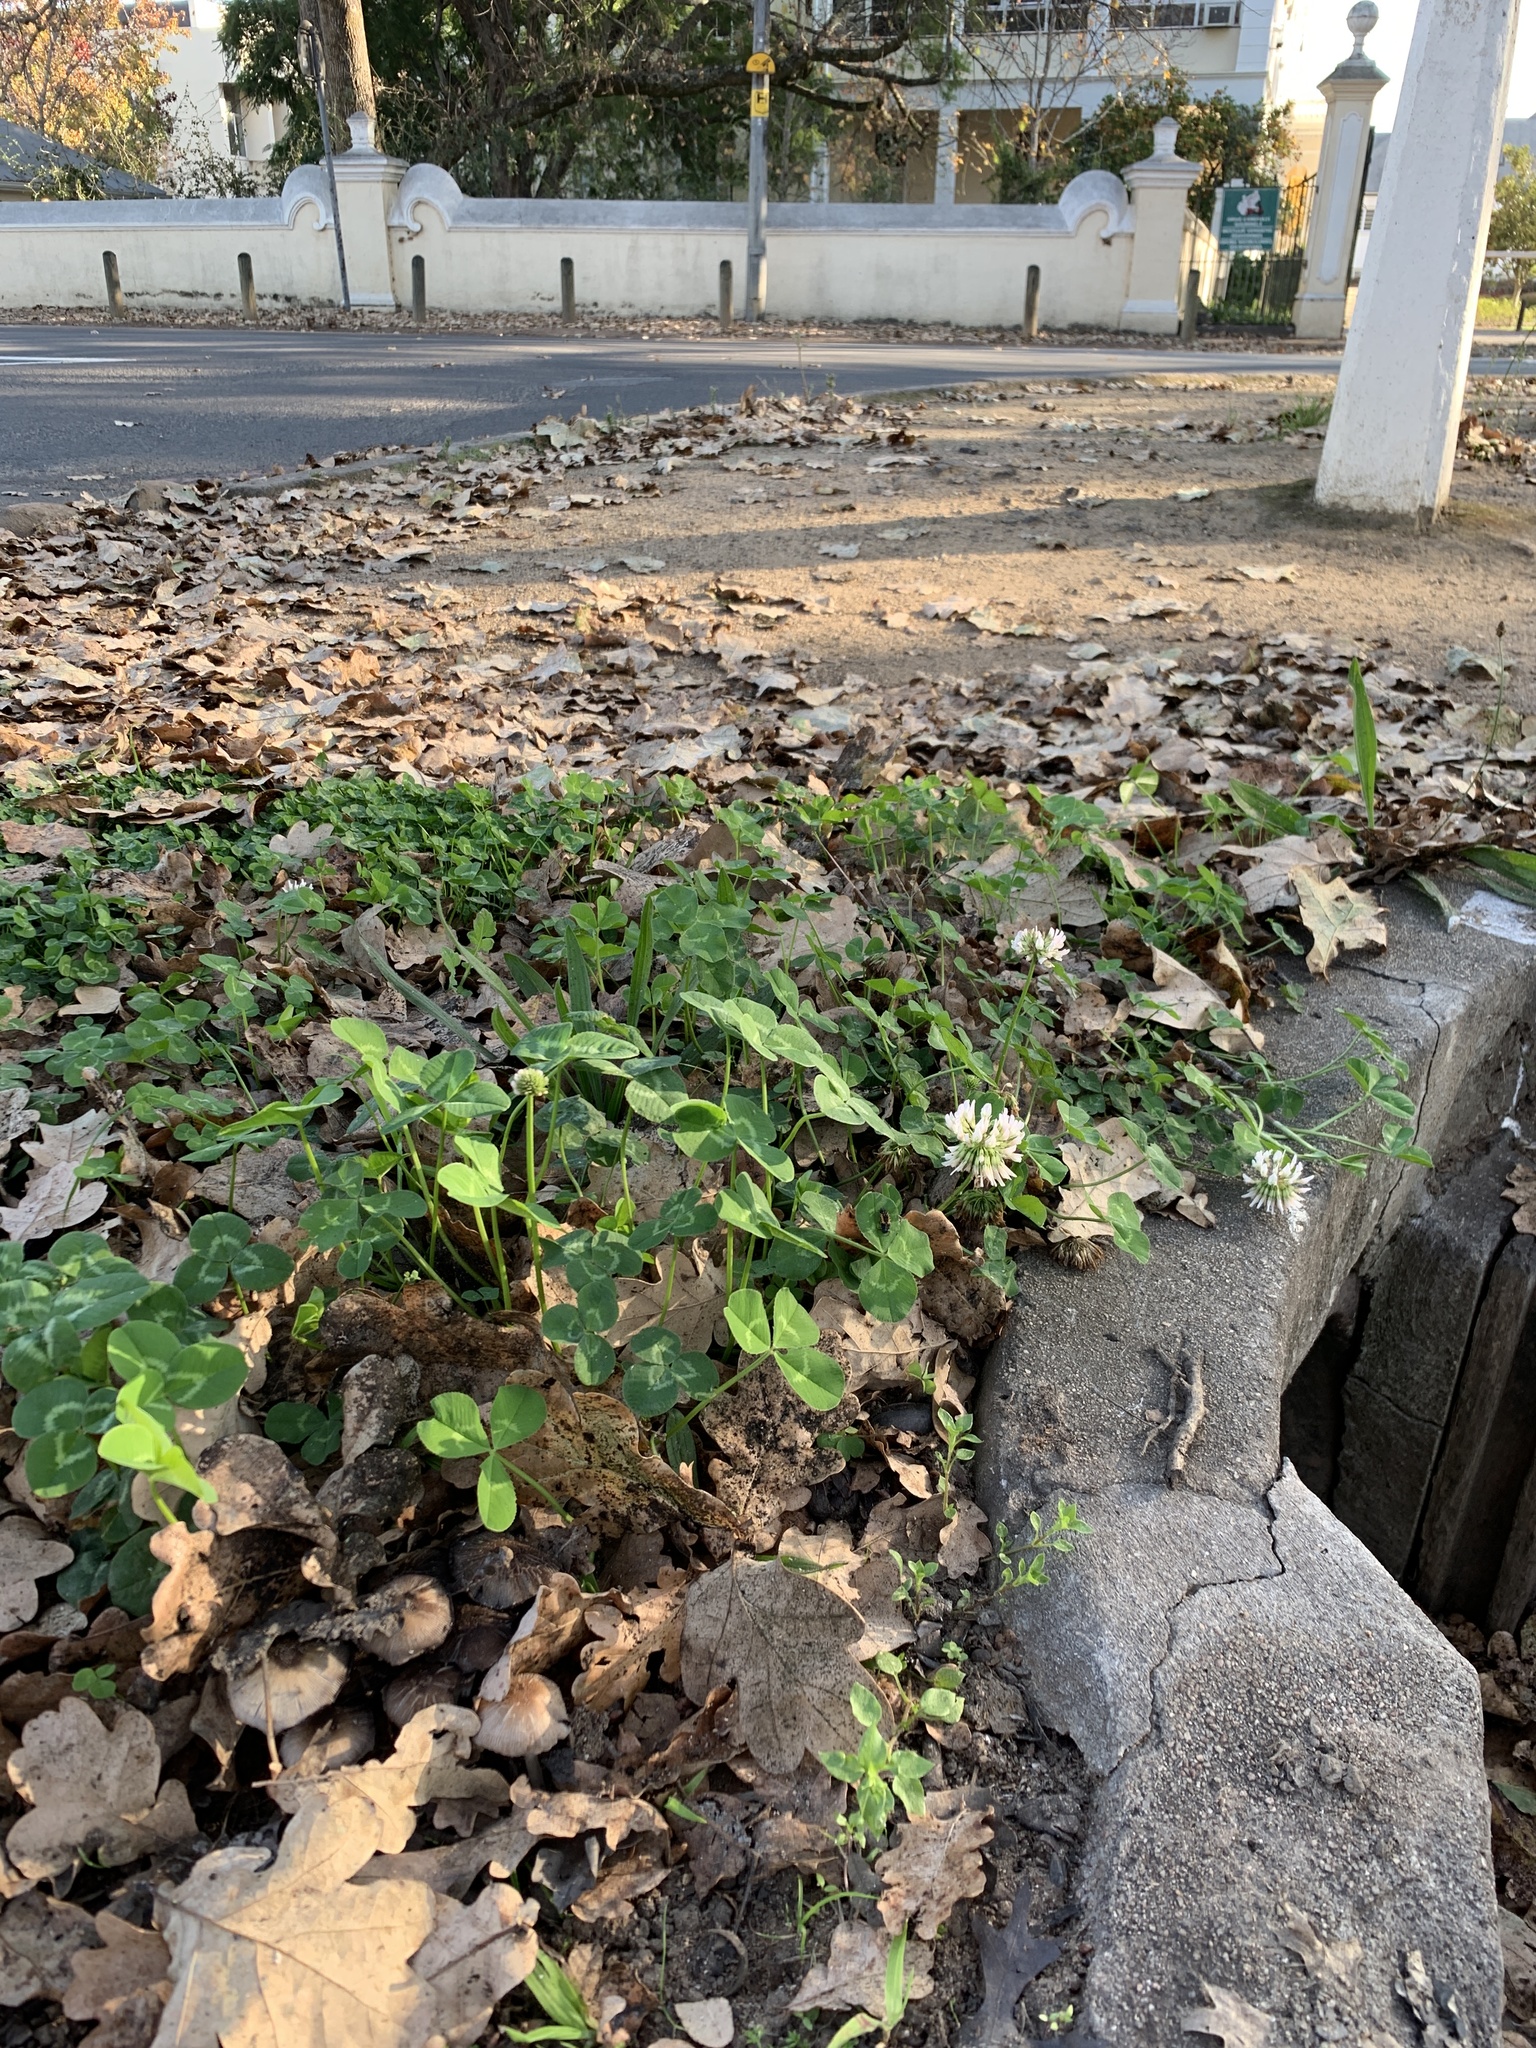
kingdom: Plantae
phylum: Tracheophyta
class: Magnoliopsida
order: Fabales
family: Fabaceae
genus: Trifolium
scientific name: Trifolium repens
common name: White clover
